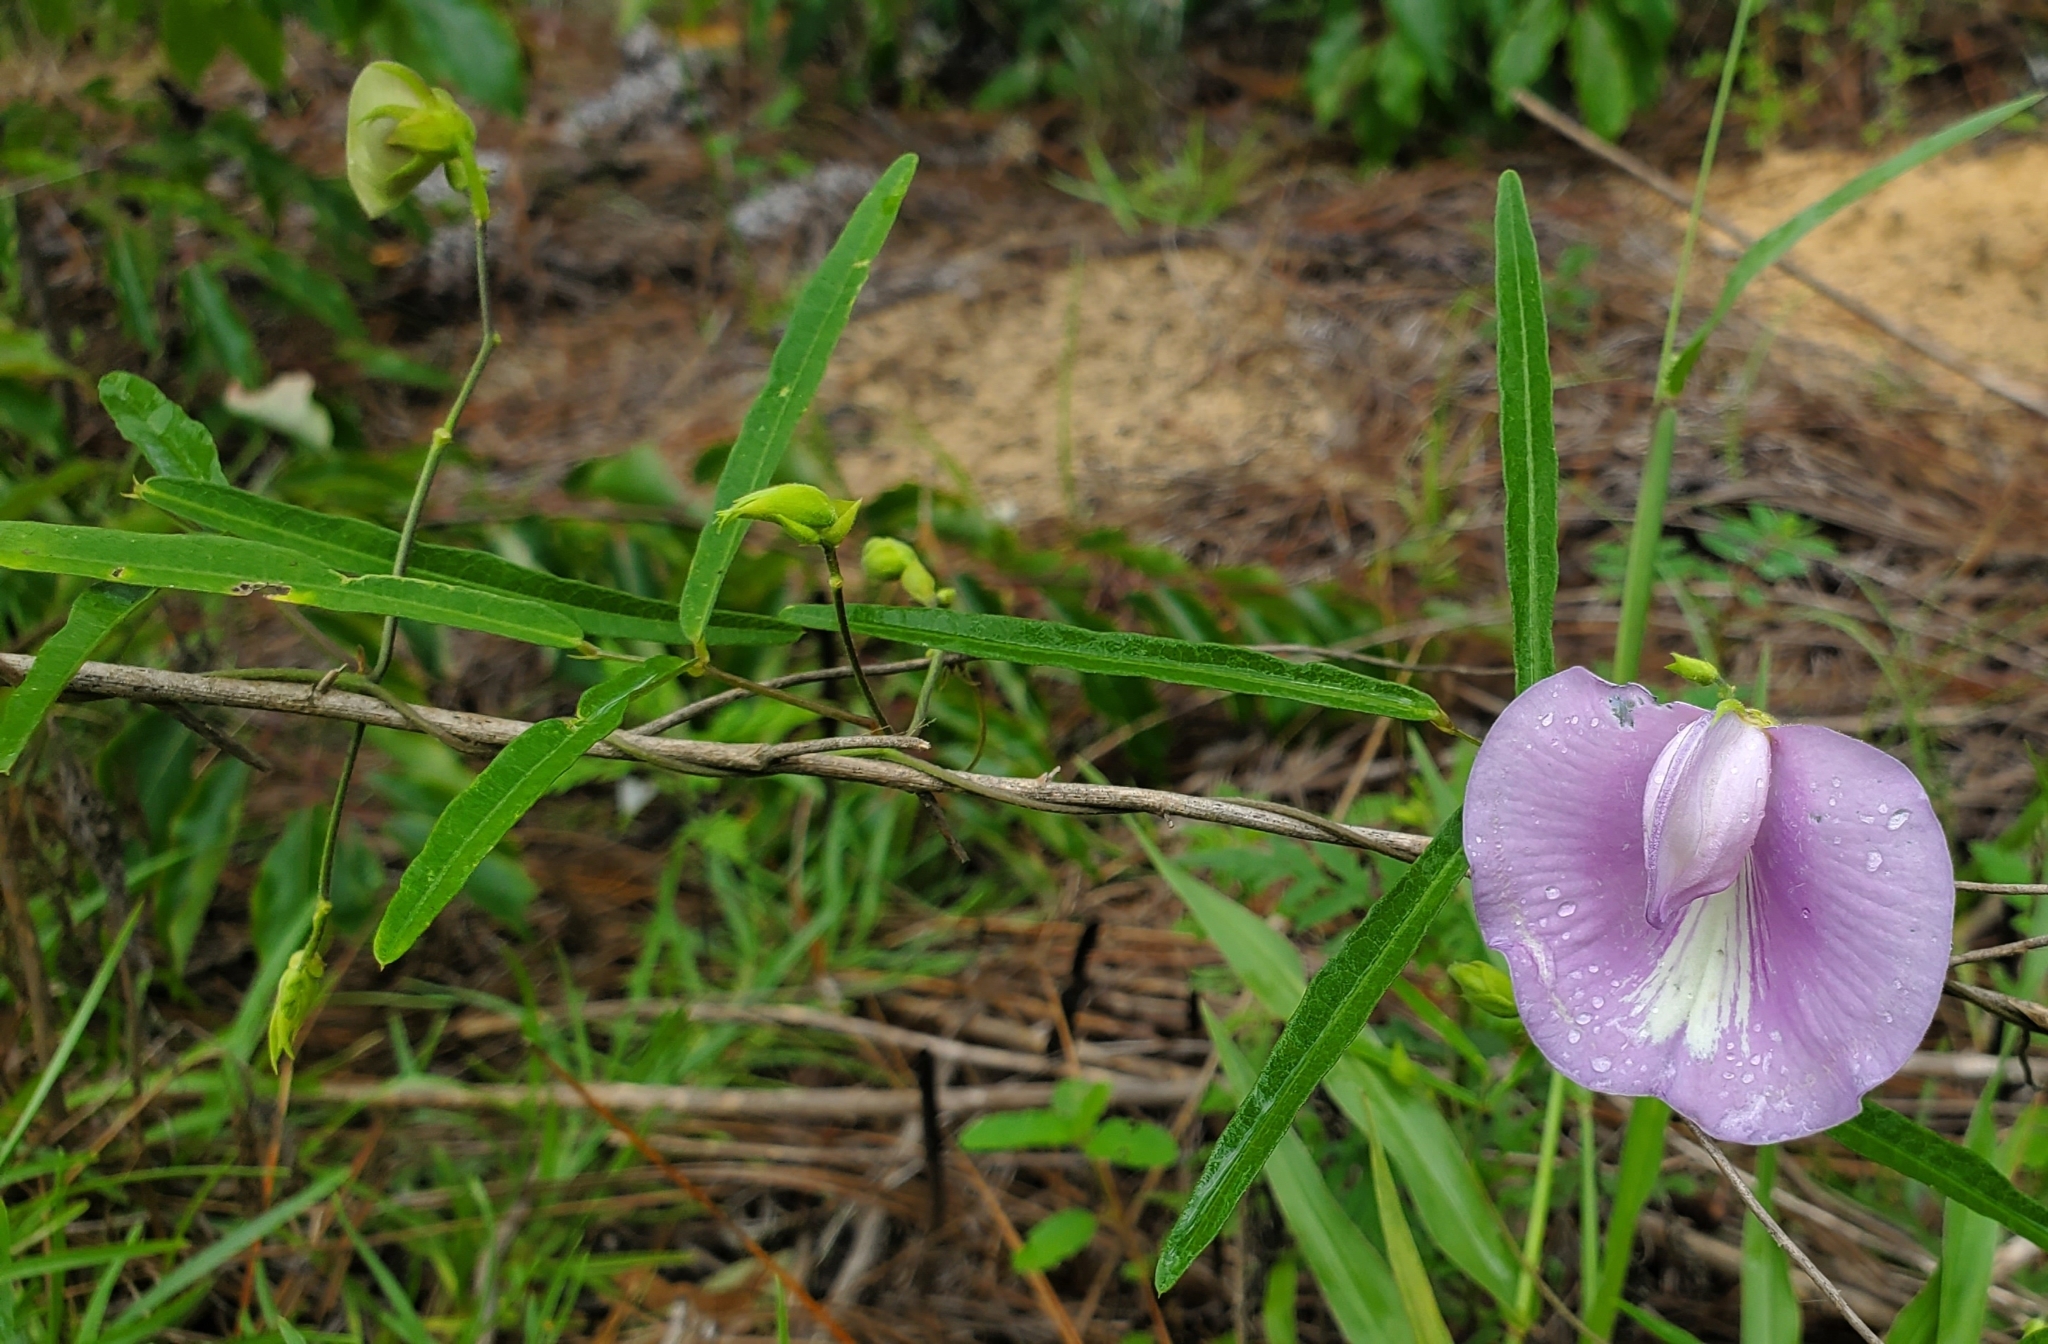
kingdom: Plantae
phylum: Tracheophyta
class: Magnoliopsida
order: Fabales
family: Fabaceae
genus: Centrosema
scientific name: Centrosema virginianum
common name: Butterfly-pea
